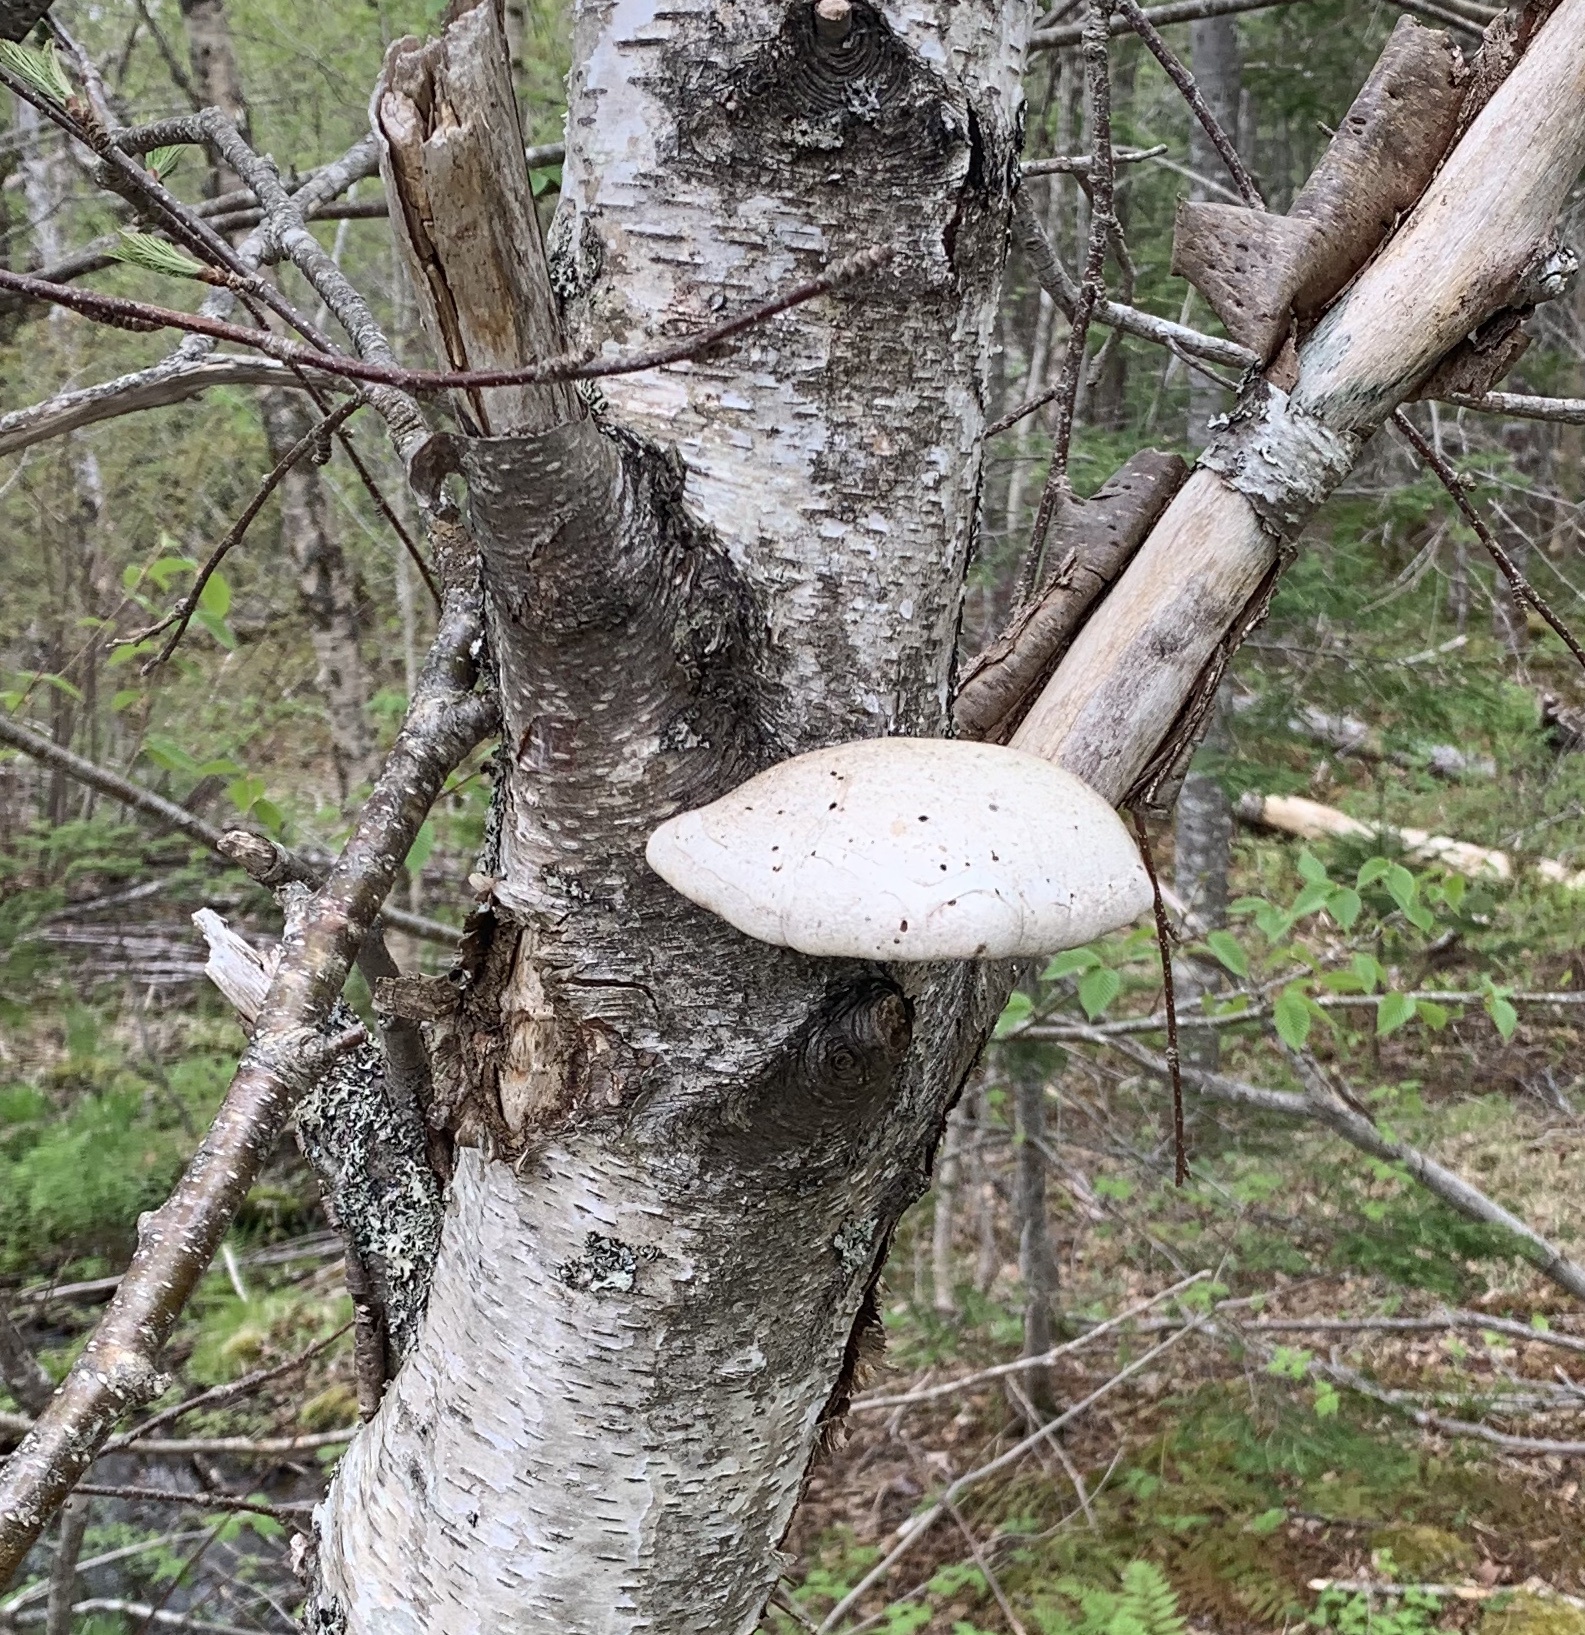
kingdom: Fungi
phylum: Basidiomycota
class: Agaricomycetes
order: Polyporales
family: Fomitopsidaceae
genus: Fomitopsis
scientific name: Fomitopsis betulina
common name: Birch polypore
